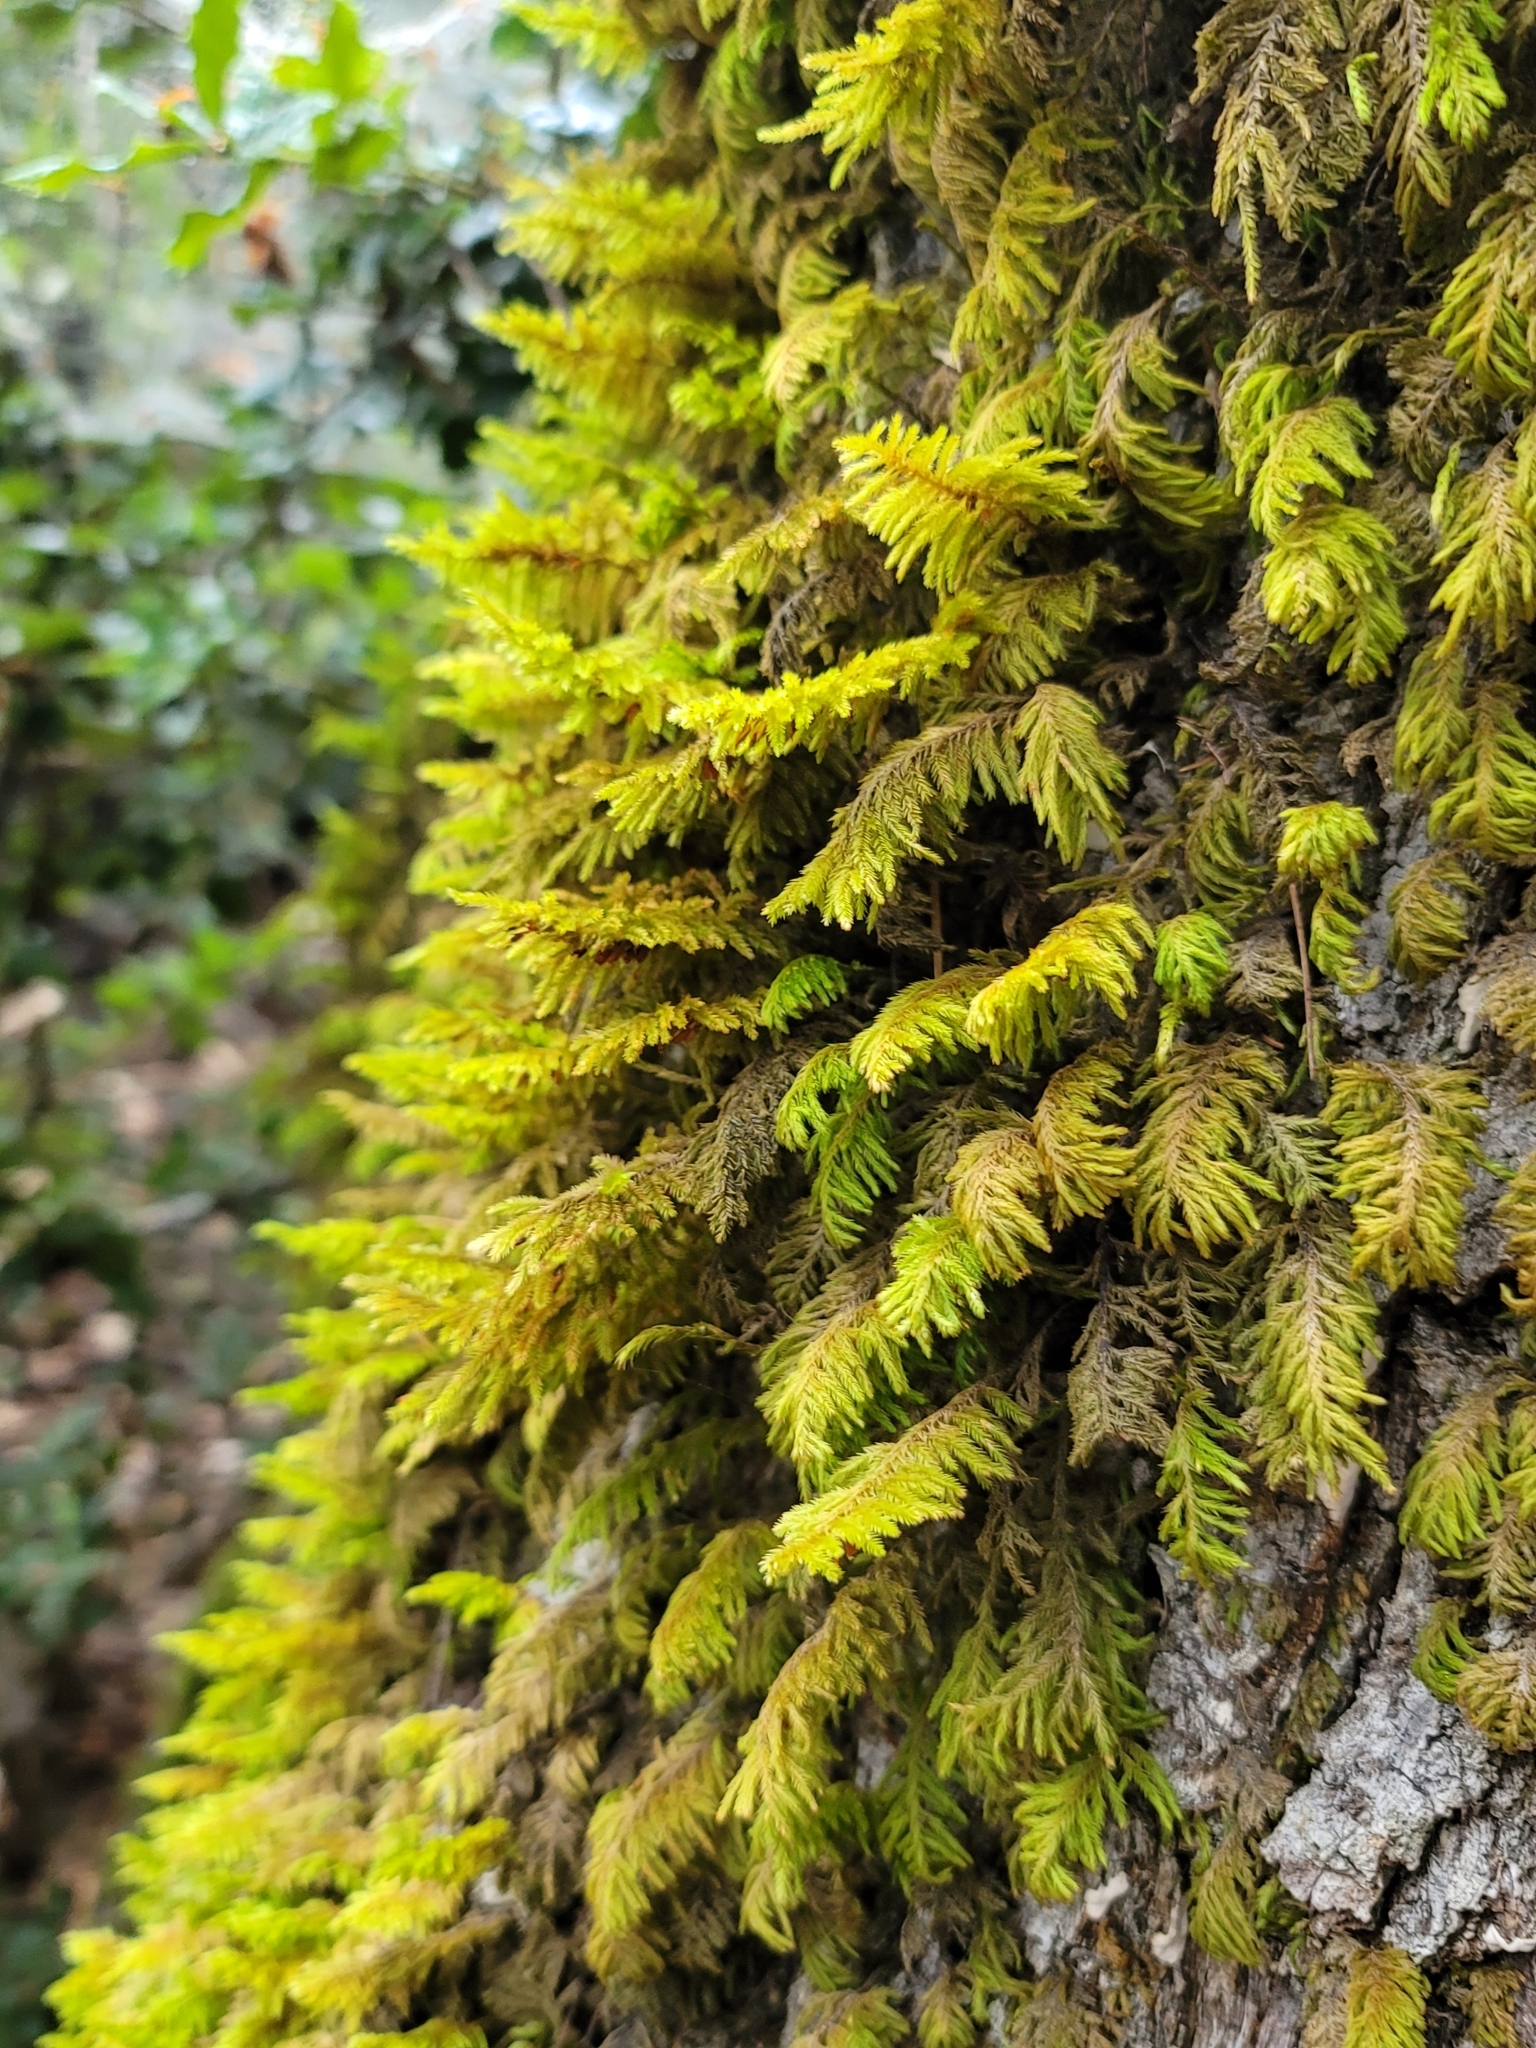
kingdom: Plantae
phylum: Bryophyta
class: Bryopsida
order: Hypnales
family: Cryphaeaceae
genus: Dendroalsia
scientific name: Dendroalsia abietina
